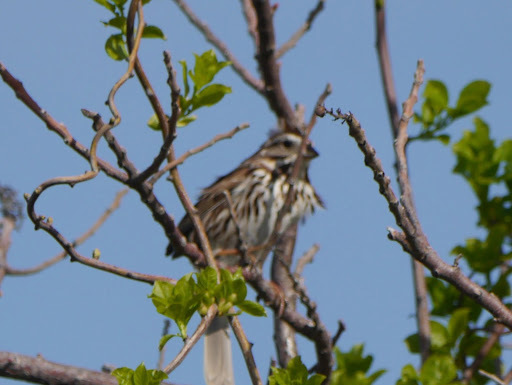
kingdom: Animalia
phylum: Chordata
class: Aves
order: Passeriformes
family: Passerellidae
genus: Melospiza
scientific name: Melospiza melodia
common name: Song sparrow
